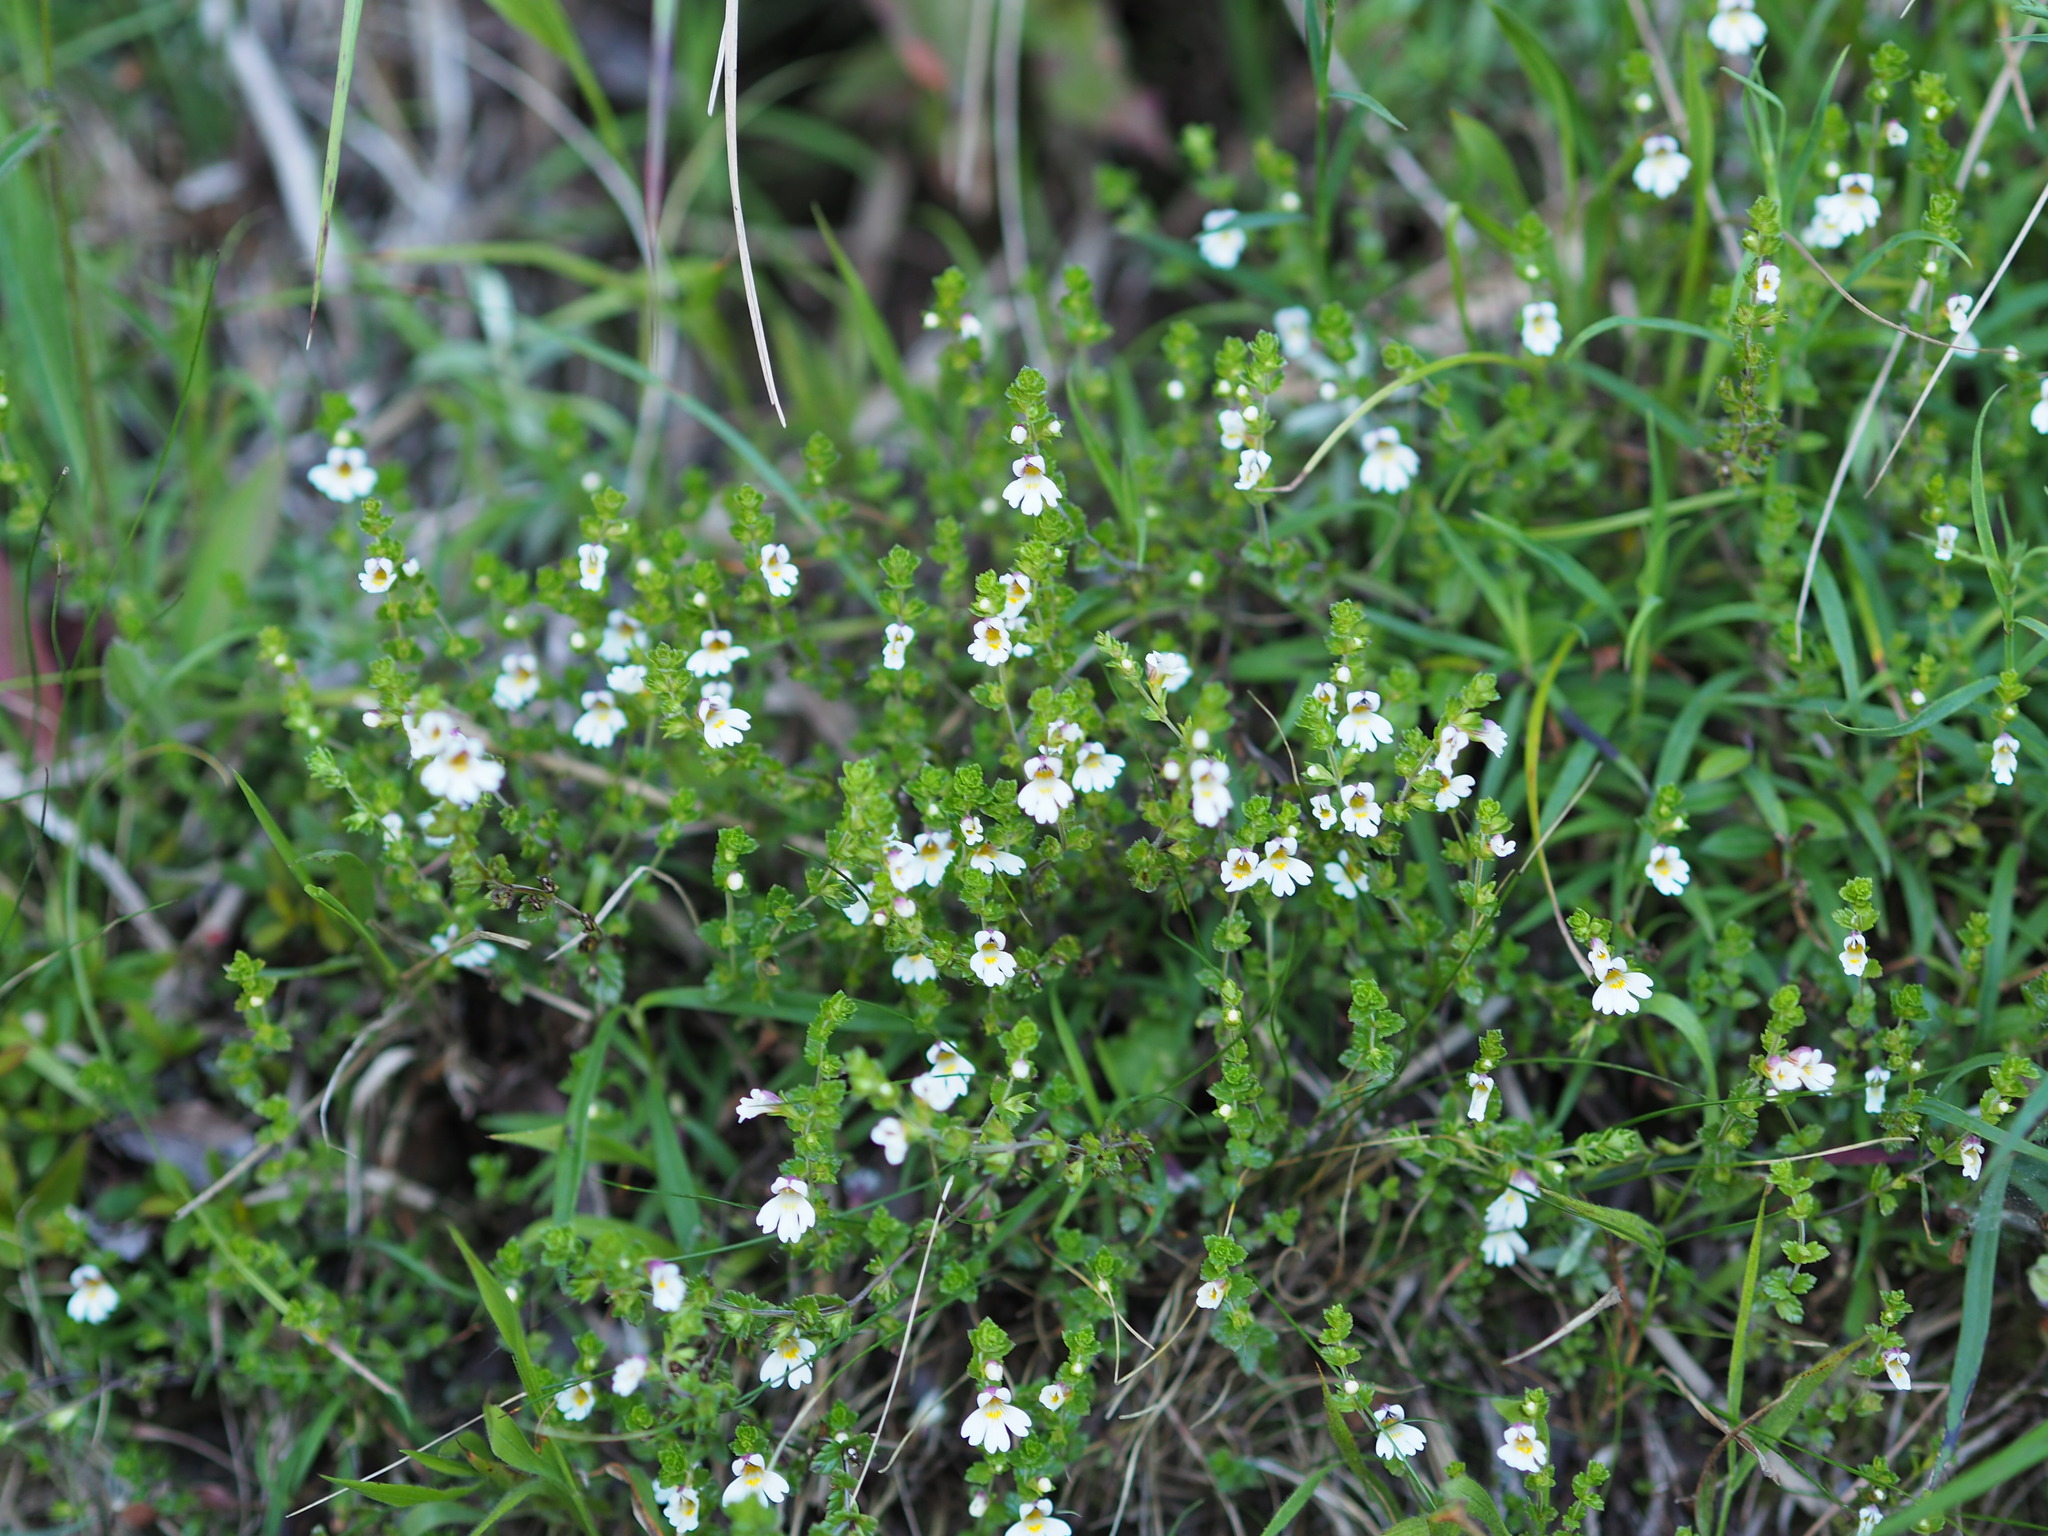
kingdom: Plantae
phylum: Tracheophyta
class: Magnoliopsida
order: Lamiales
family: Orobanchaceae
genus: Euphrasia
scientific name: Euphrasia transmorrisonensis
